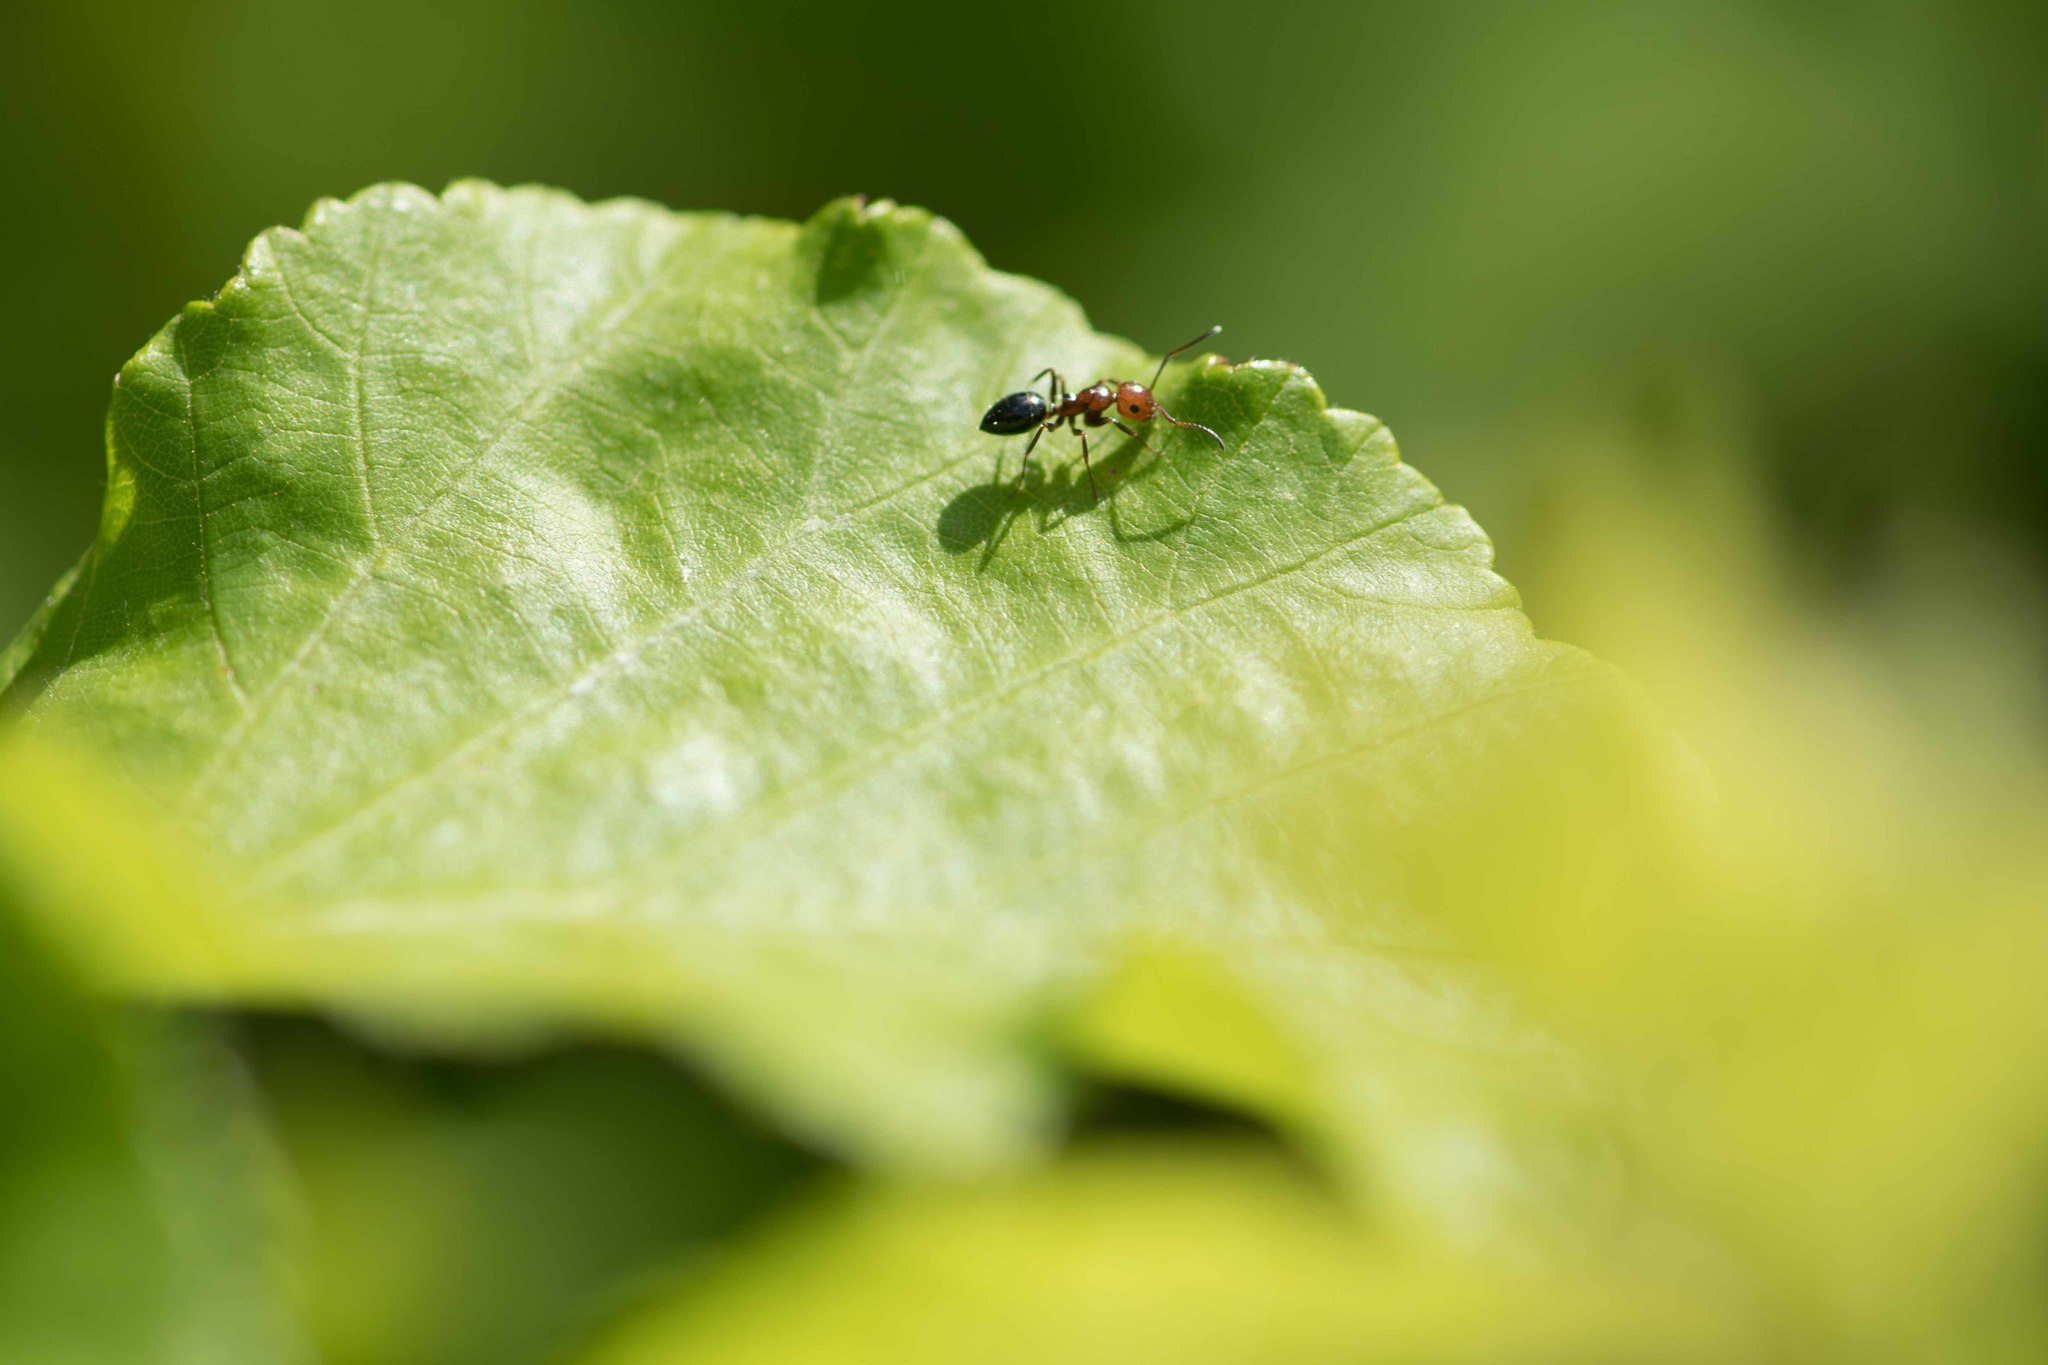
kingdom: Animalia
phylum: Arthropoda
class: Insecta
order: Hymenoptera
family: Formicidae
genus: Camponotus
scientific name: Camponotus lateralis
